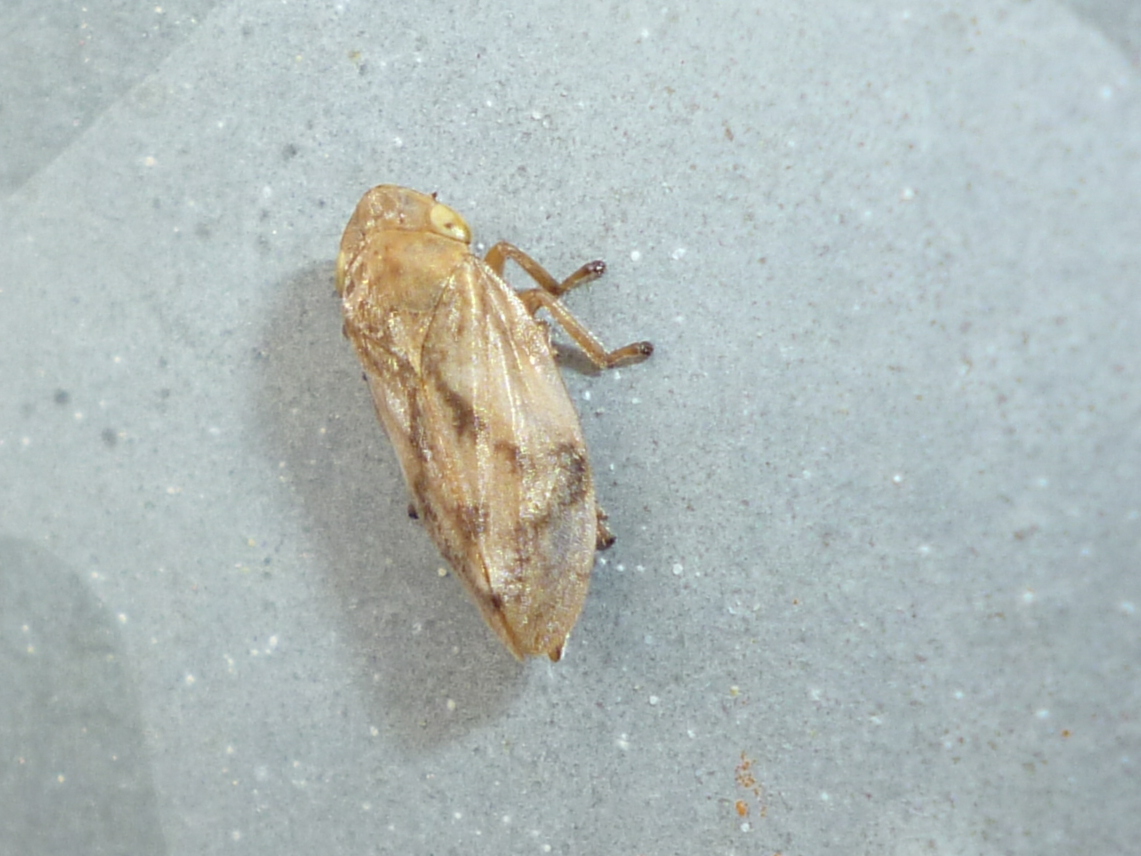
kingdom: Animalia
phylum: Arthropoda
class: Insecta
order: Hemiptera
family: Aphrophoridae
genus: Philaenus
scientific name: Philaenus spumarius
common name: Meadow spittlebug
